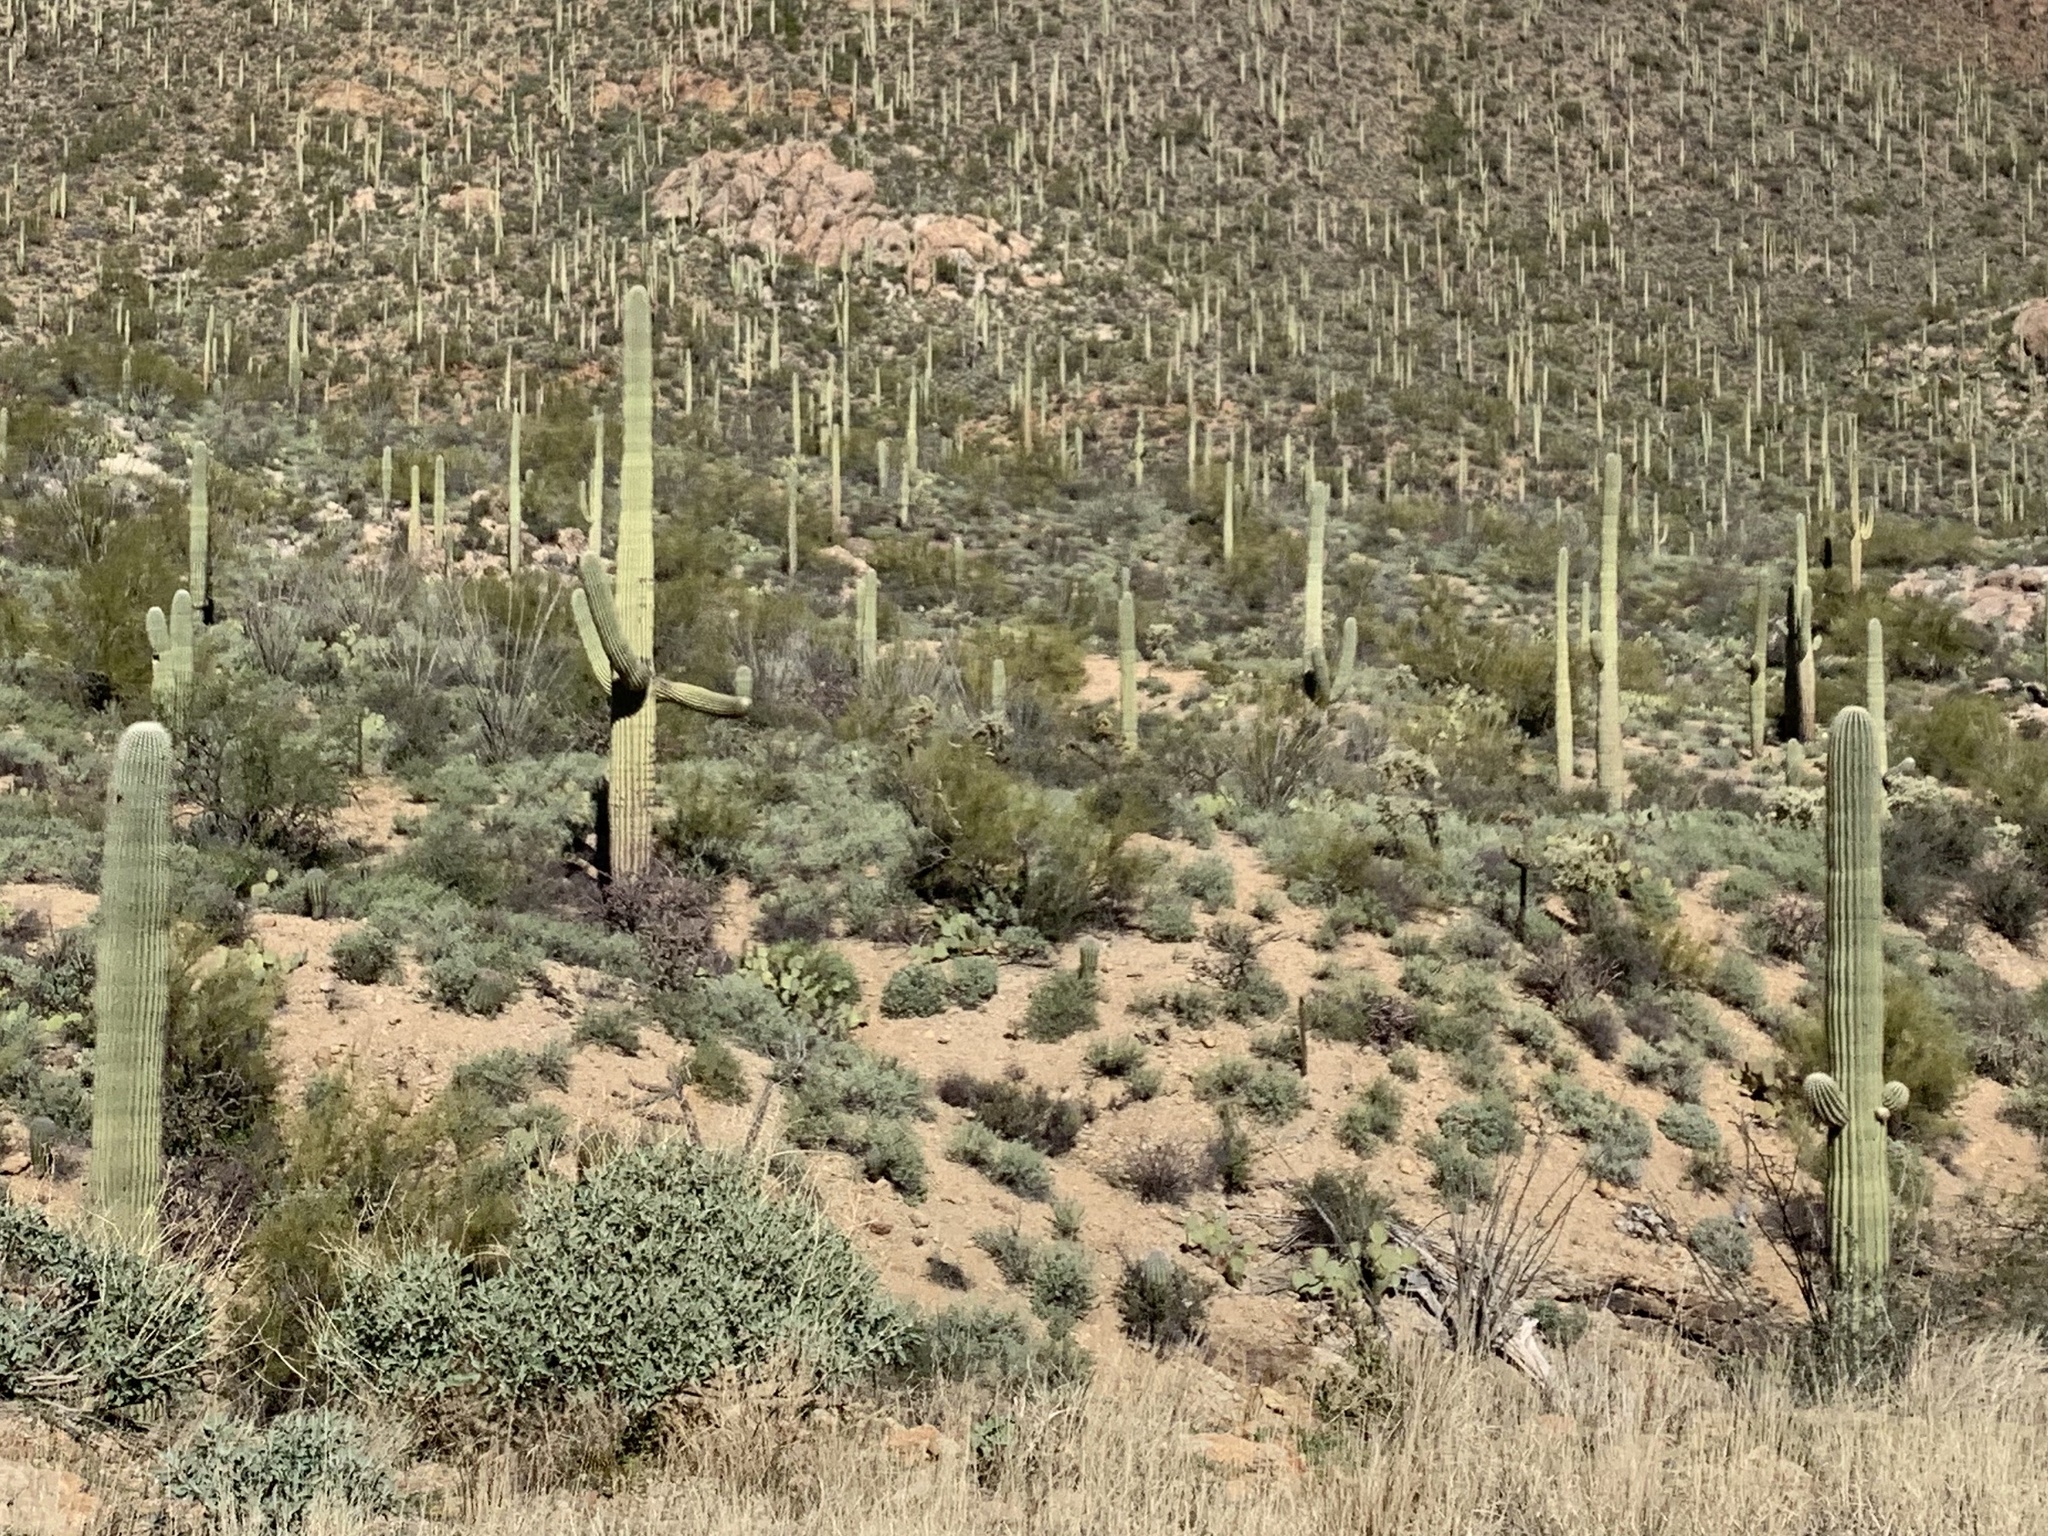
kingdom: Plantae
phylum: Tracheophyta
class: Magnoliopsida
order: Caryophyllales
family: Cactaceae
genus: Carnegiea
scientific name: Carnegiea gigantea
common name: Saguaro
